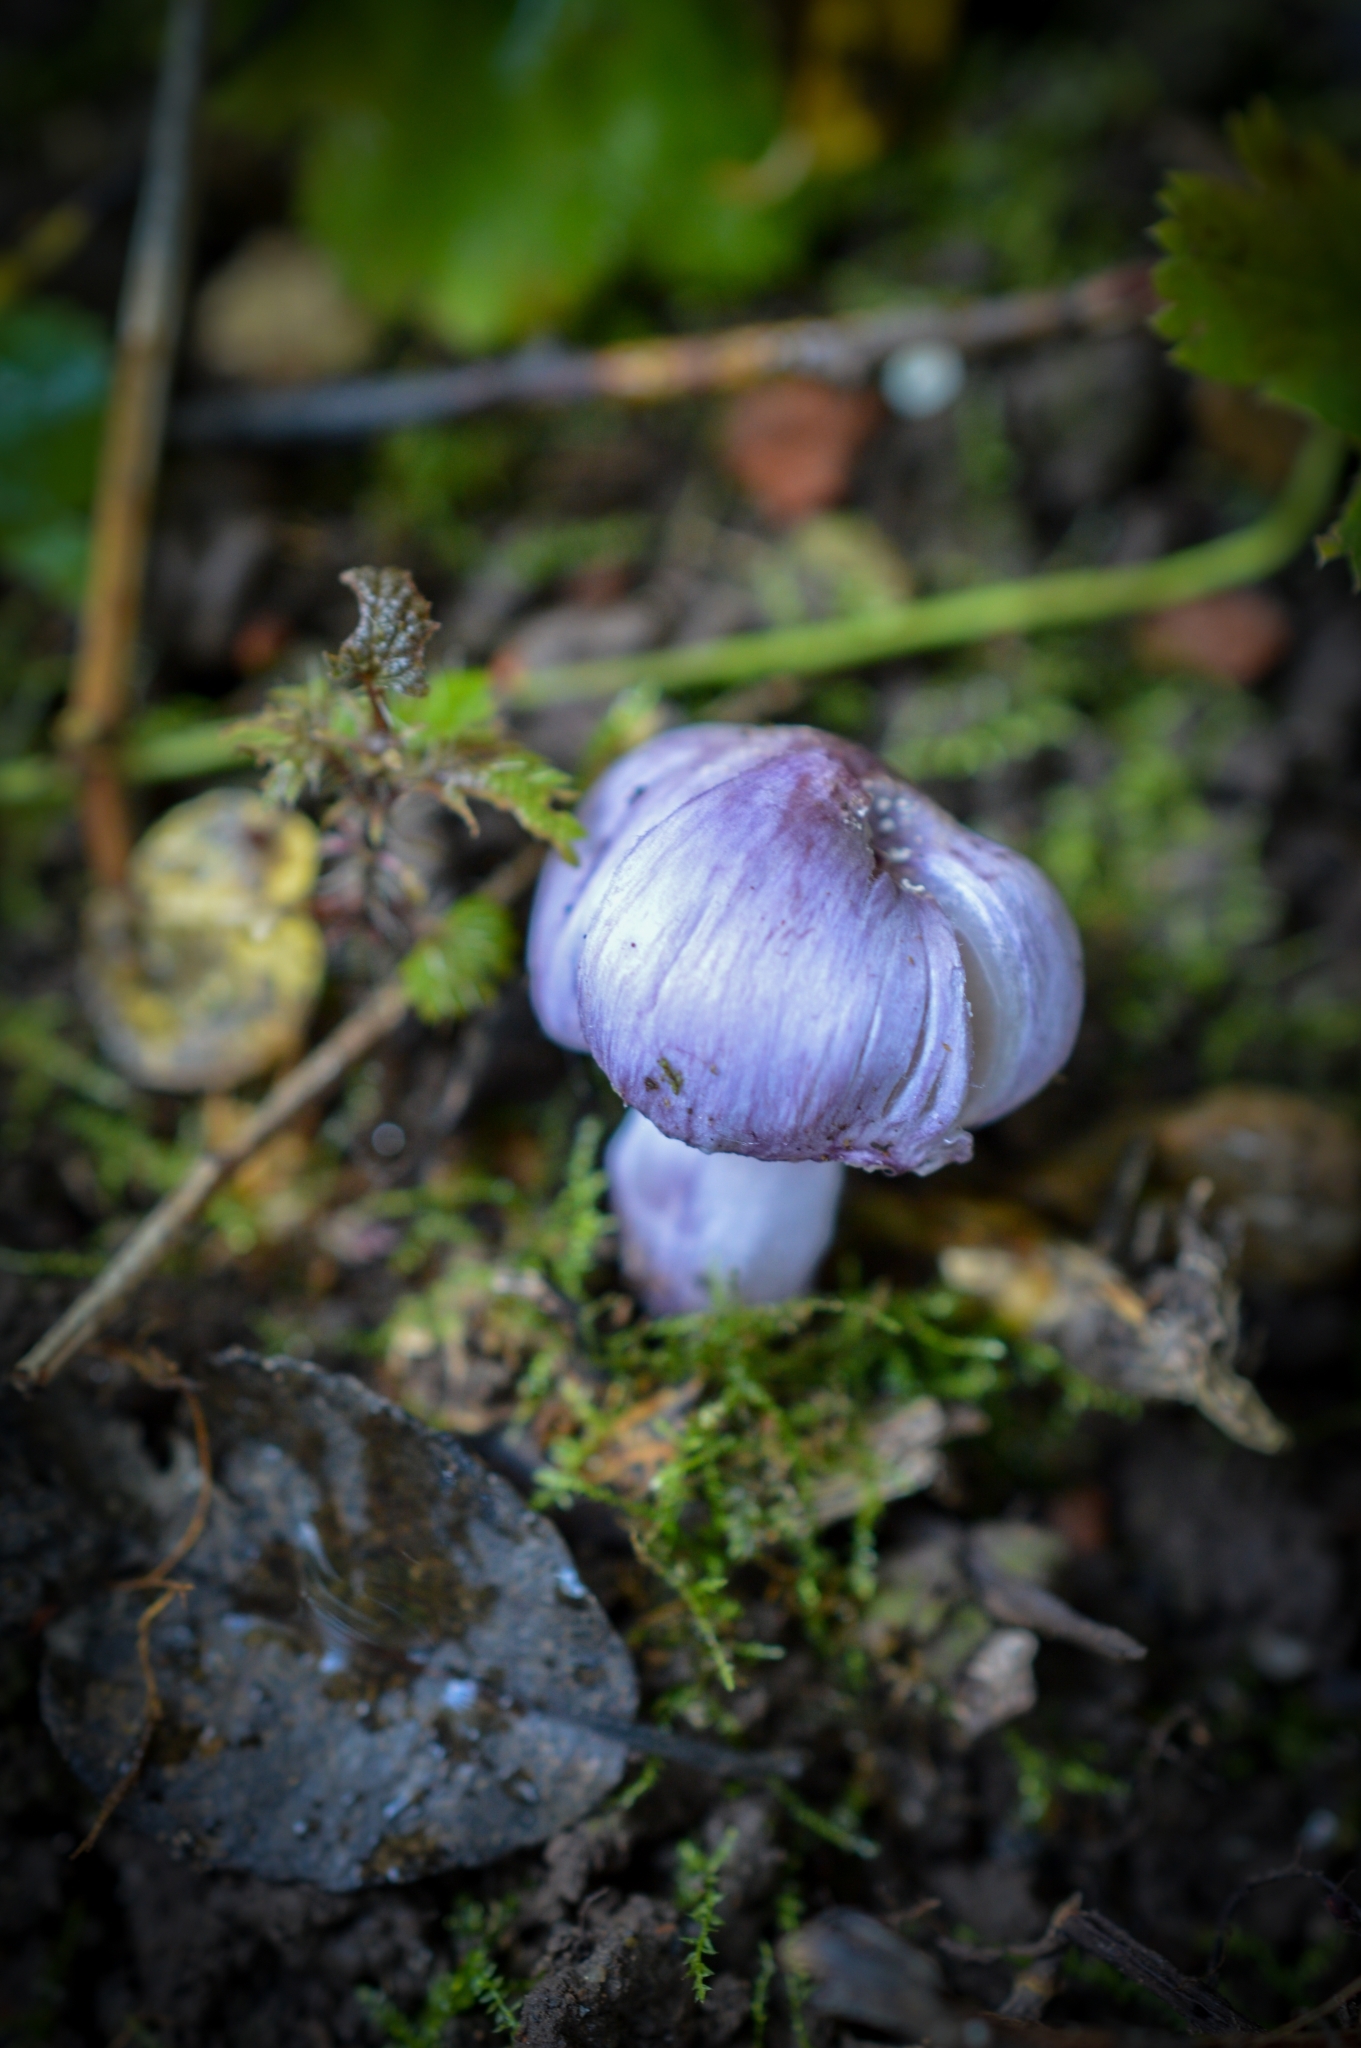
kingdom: Fungi
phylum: Basidiomycota
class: Agaricomycetes
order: Agaricales
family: Inocybaceae
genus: Inocybe
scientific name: Inocybe geophylla
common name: White fibrecap
